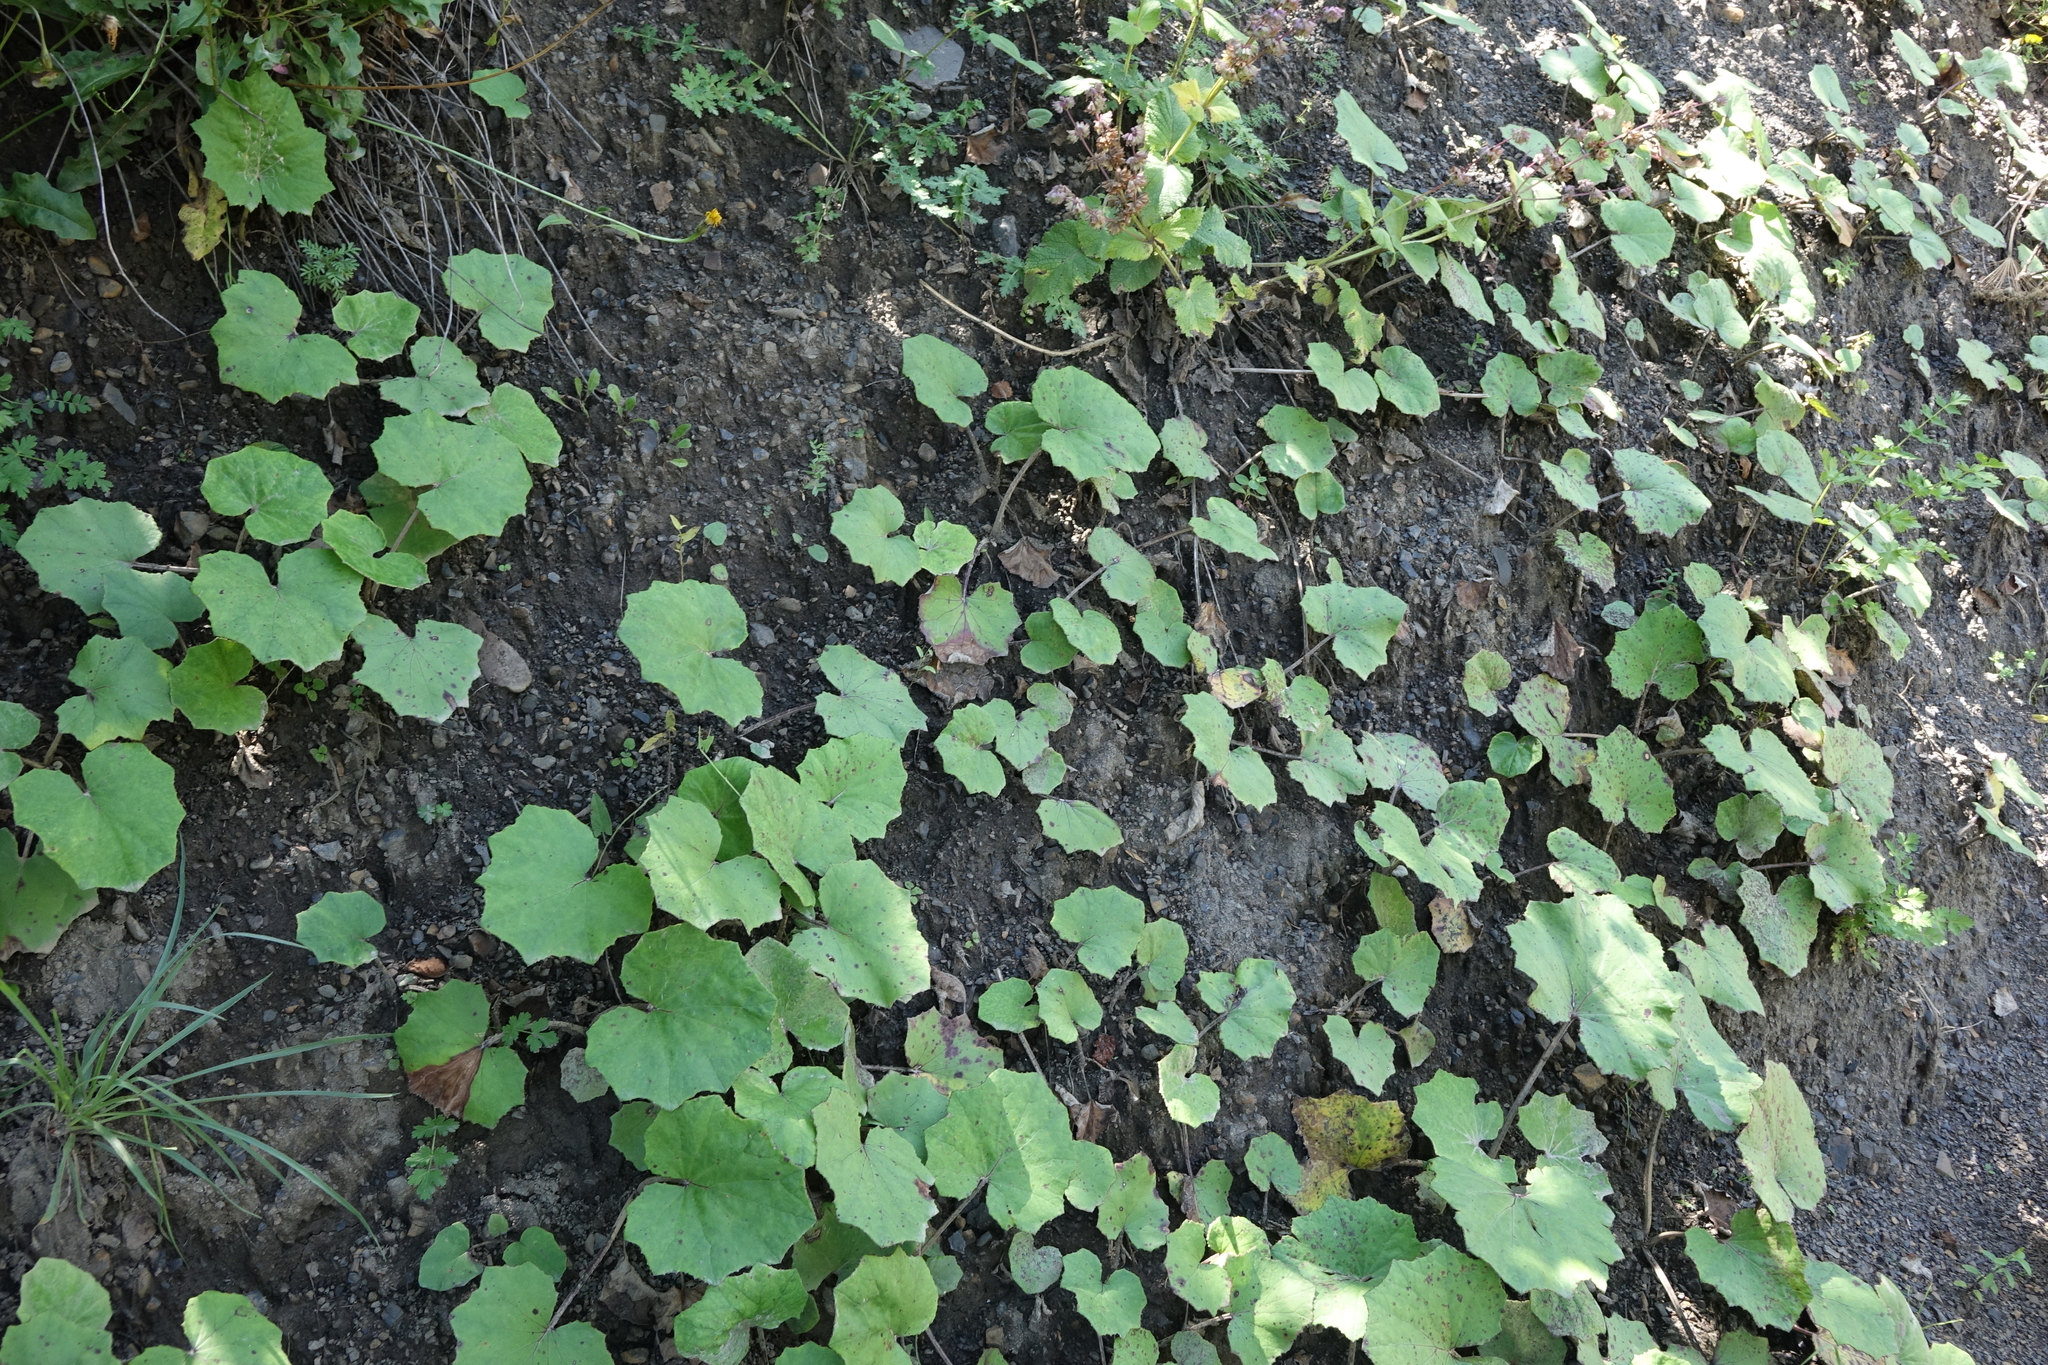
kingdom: Plantae
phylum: Tracheophyta
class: Magnoliopsida
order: Asterales
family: Asteraceae
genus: Tussilago
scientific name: Tussilago farfara
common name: Coltsfoot
